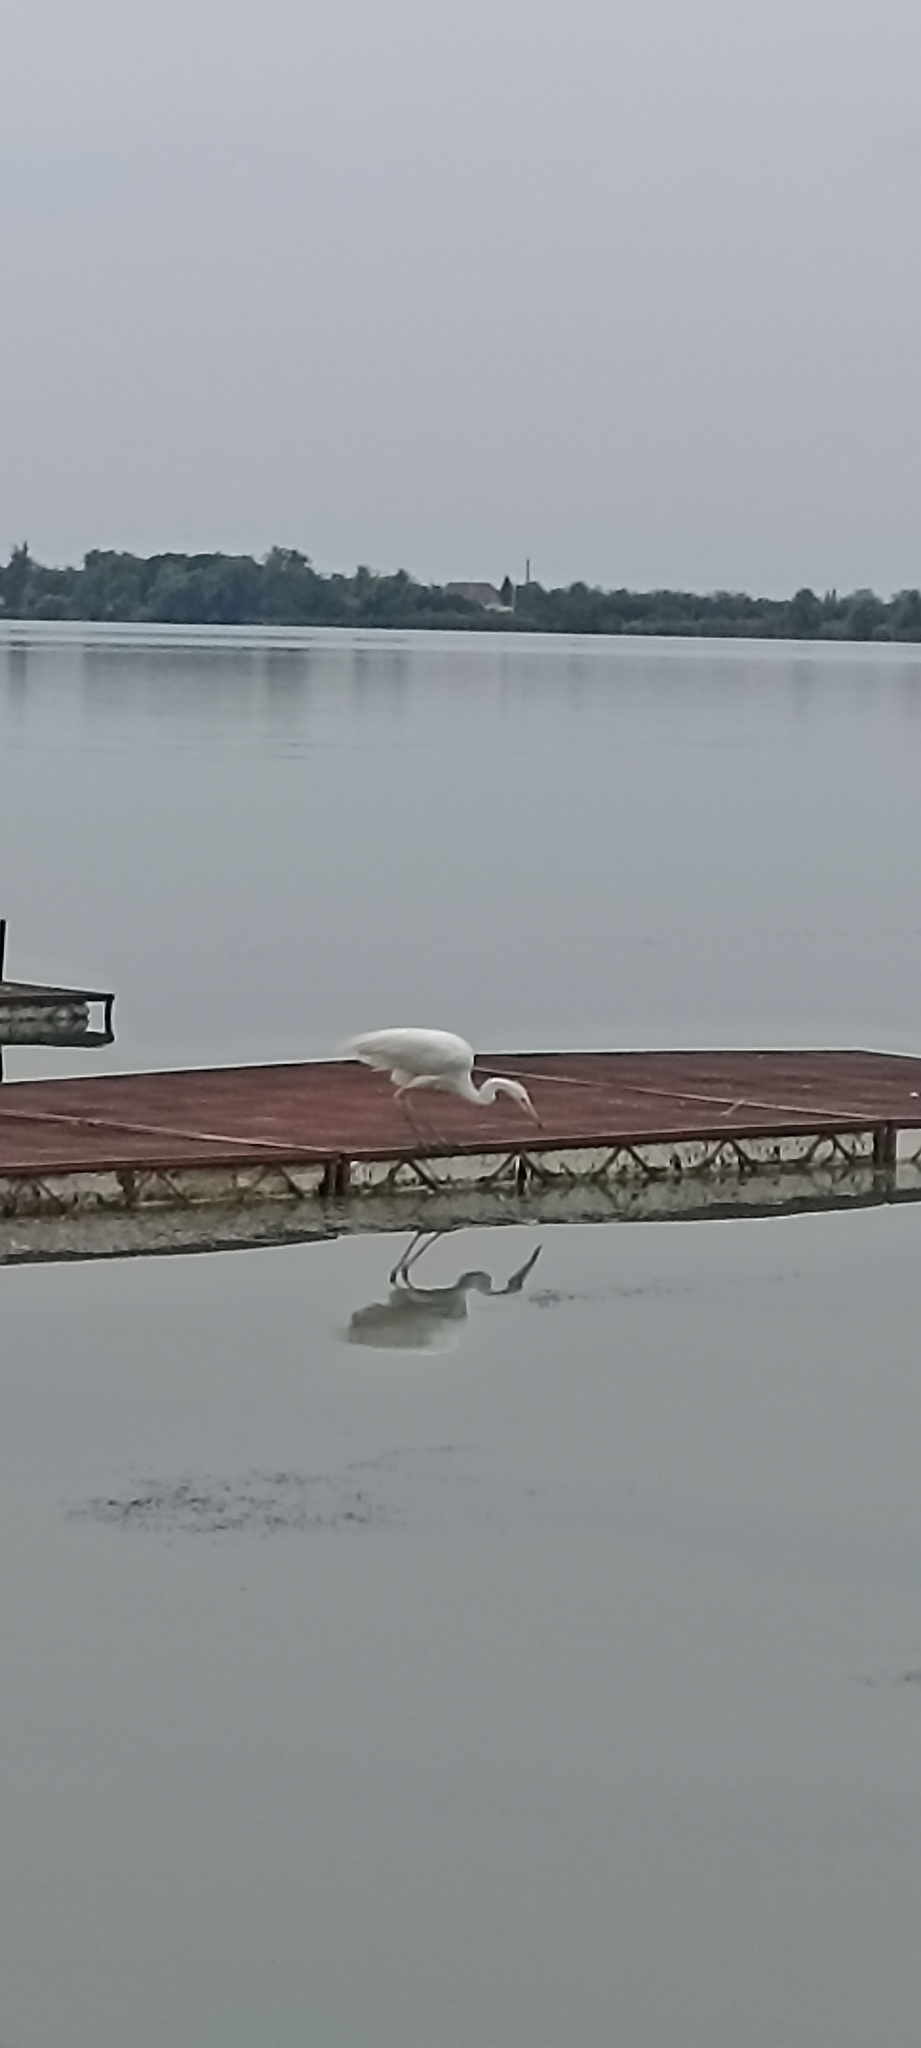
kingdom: Animalia
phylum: Chordata
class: Aves
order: Pelecaniformes
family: Ardeidae
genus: Ardea
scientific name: Ardea alba
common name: Great egret
